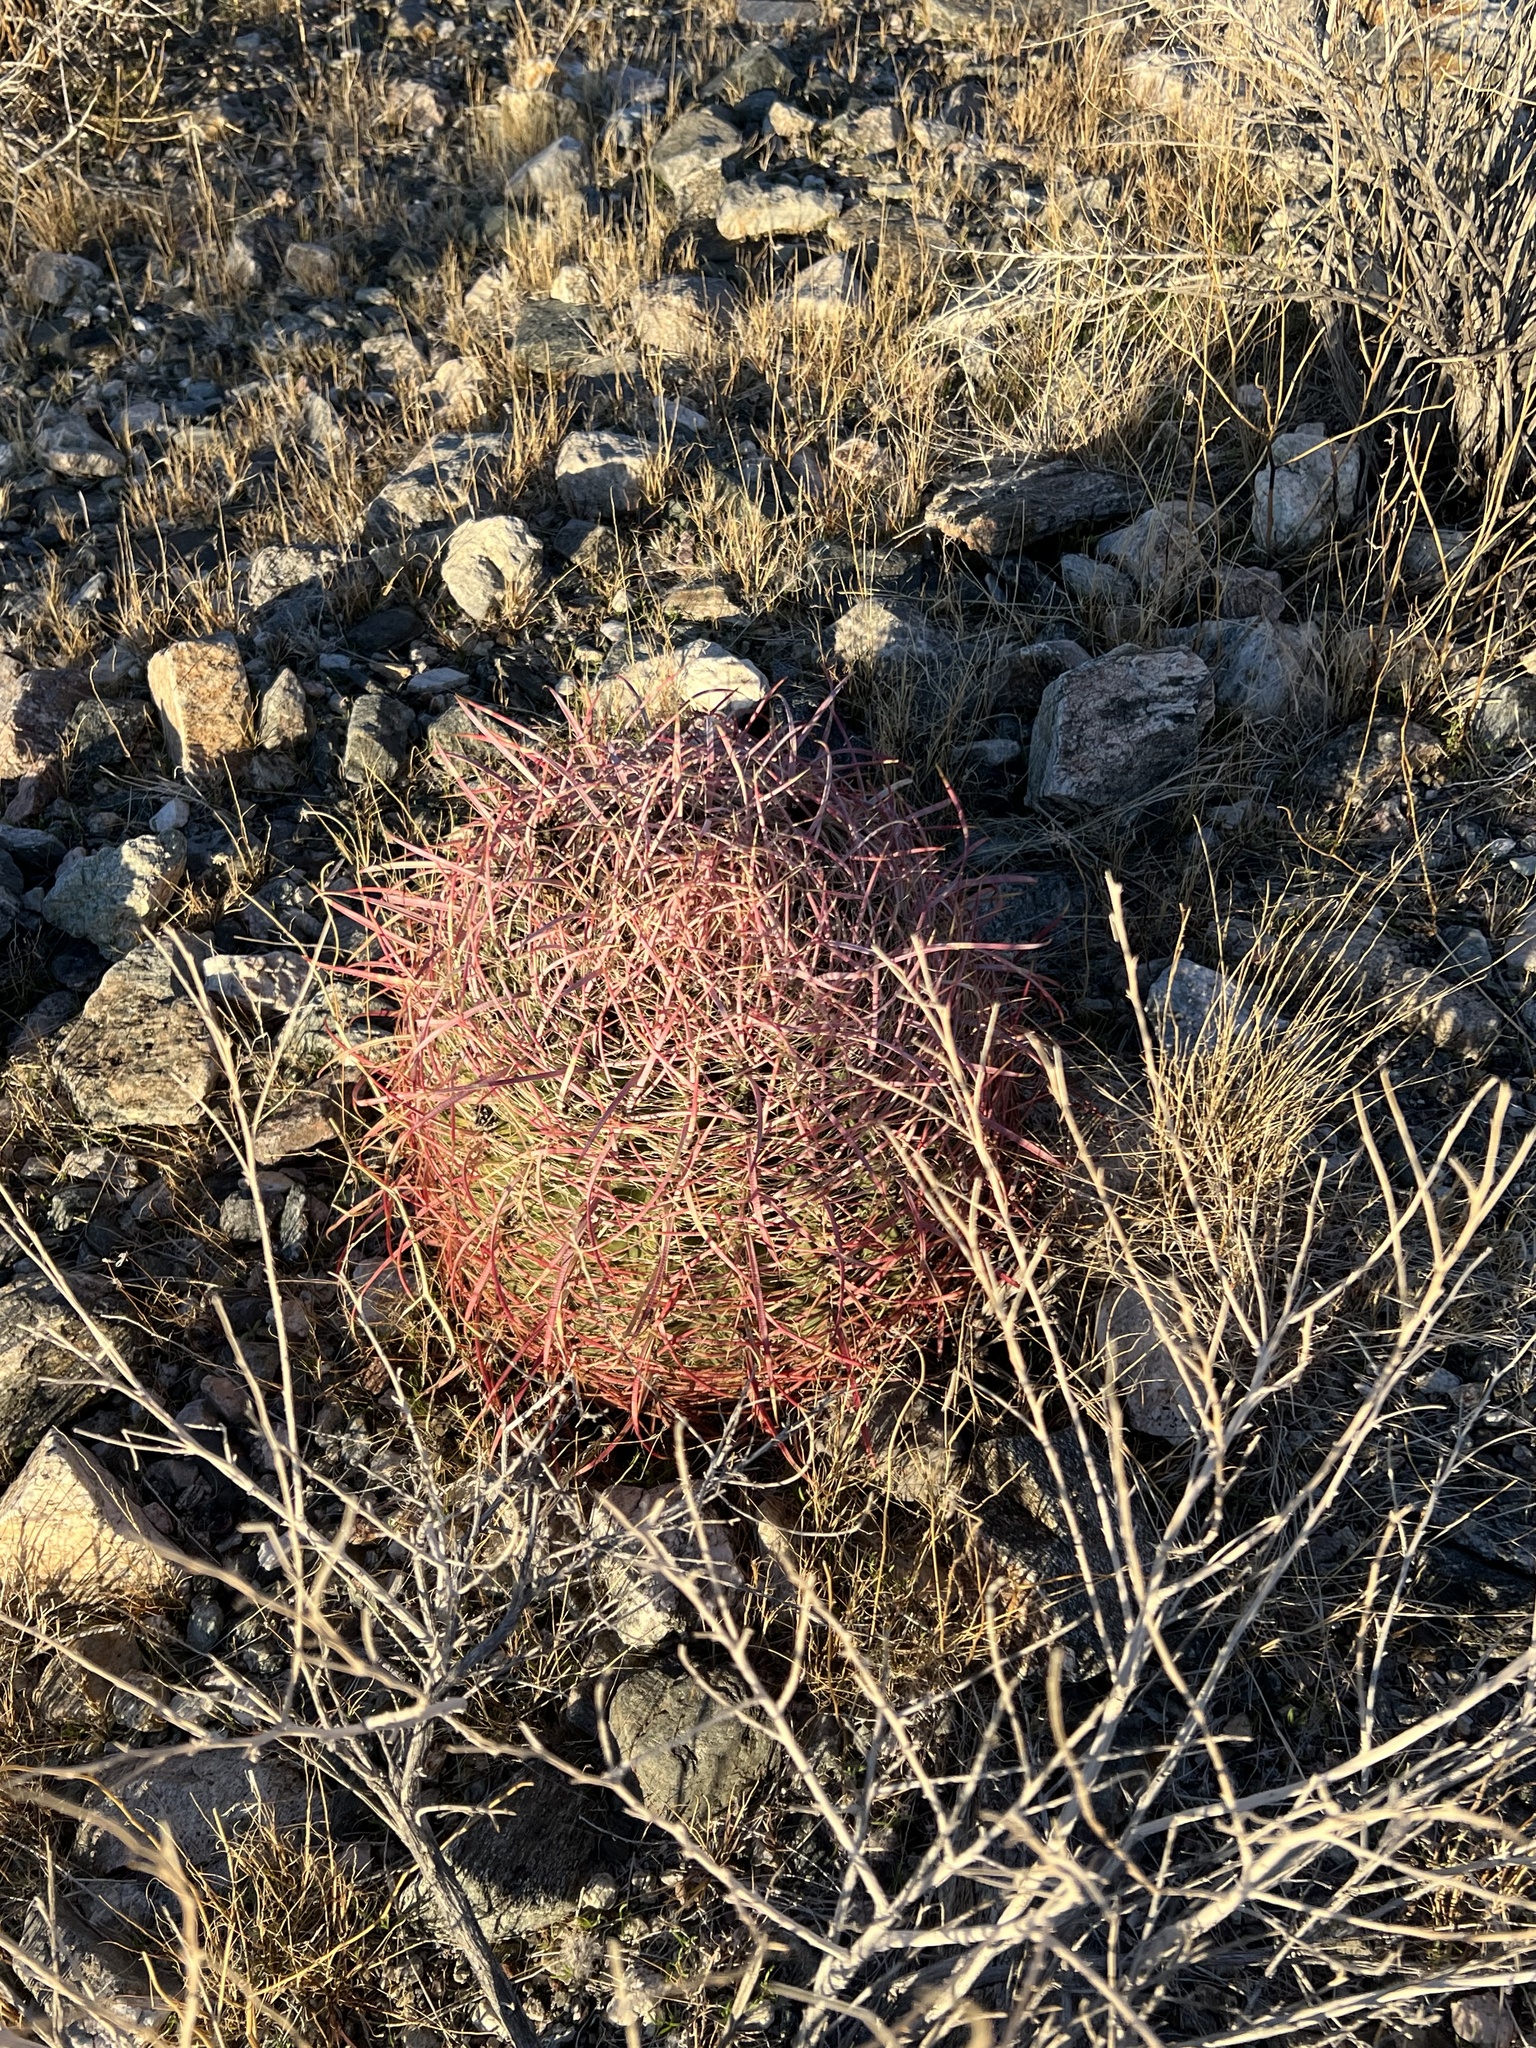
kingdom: Plantae
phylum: Tracheophyta
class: Magnoliopsida
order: Caryophyllales
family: Cactaceae
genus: Ferocactus
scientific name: Ferocactus cylindraceus
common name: California barrel cactus
